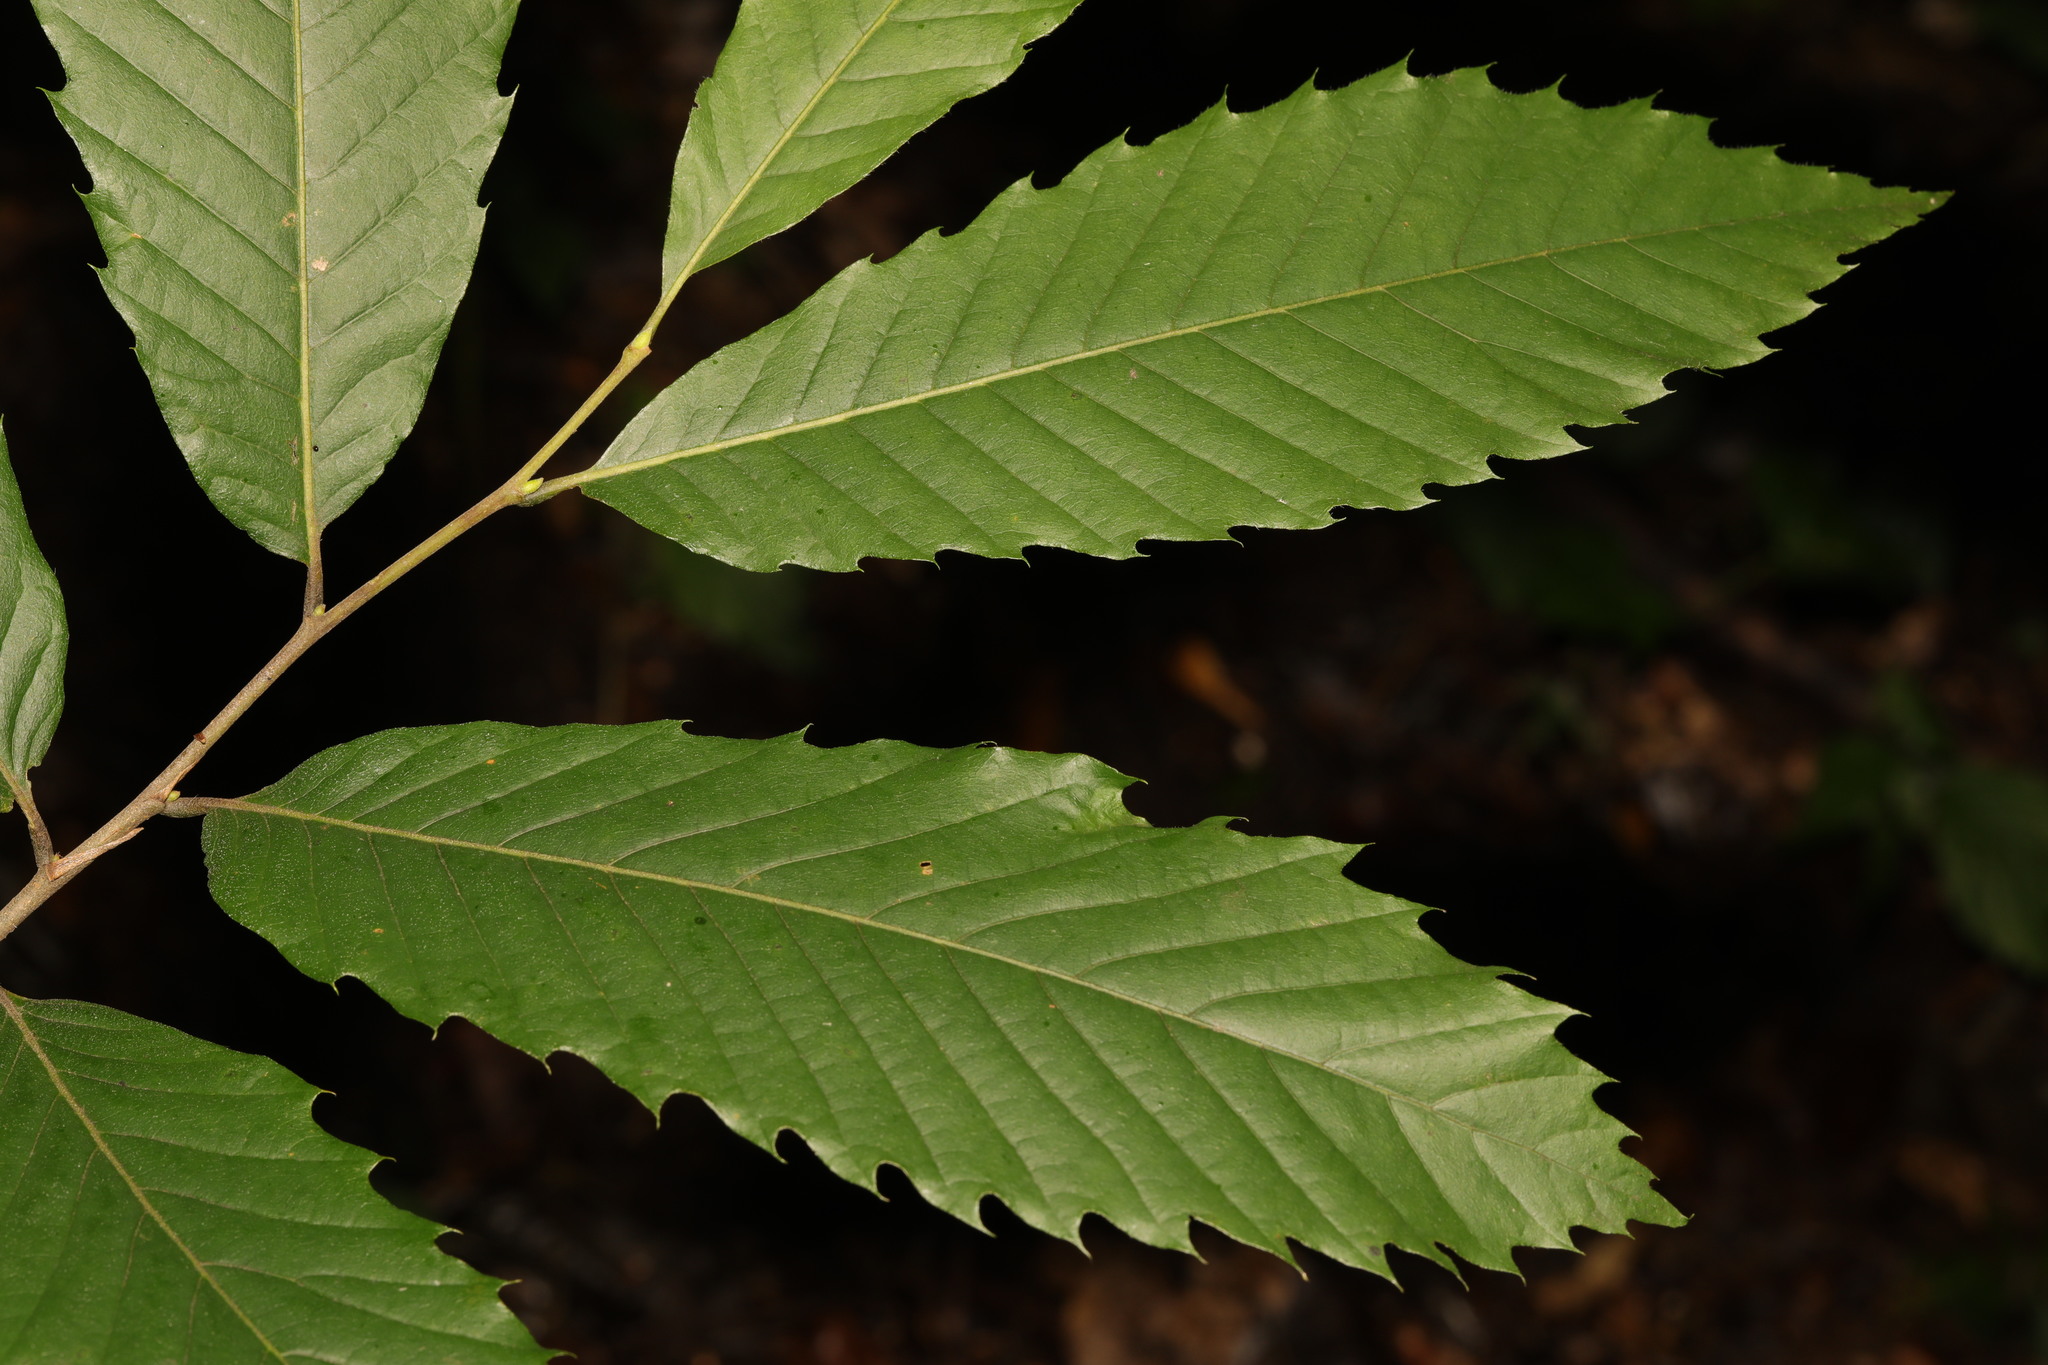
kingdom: Plantae
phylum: Tracheophyta
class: Magnoliopsida
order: Fagales
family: Fagaceae
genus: Castanea
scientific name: Castanea sativa
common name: Sweet chestnut
